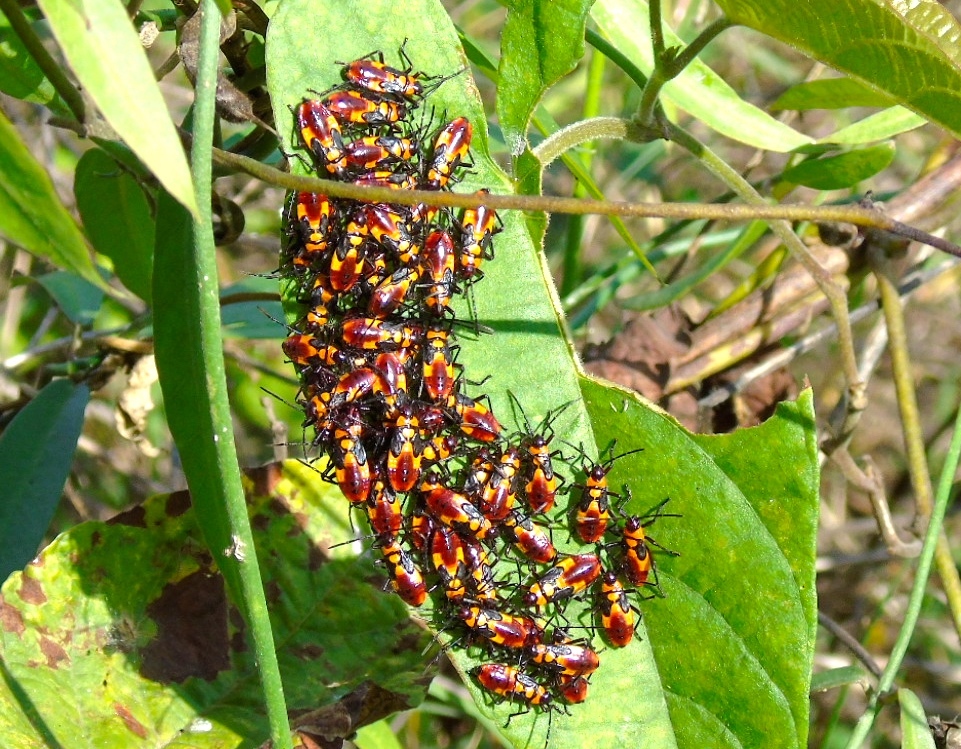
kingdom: Animalia
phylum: Arthropoda
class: Insecta
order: Hemiptera
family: Lygaeidae
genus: Oncopeltus
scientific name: Oncopeltus guttaloides
